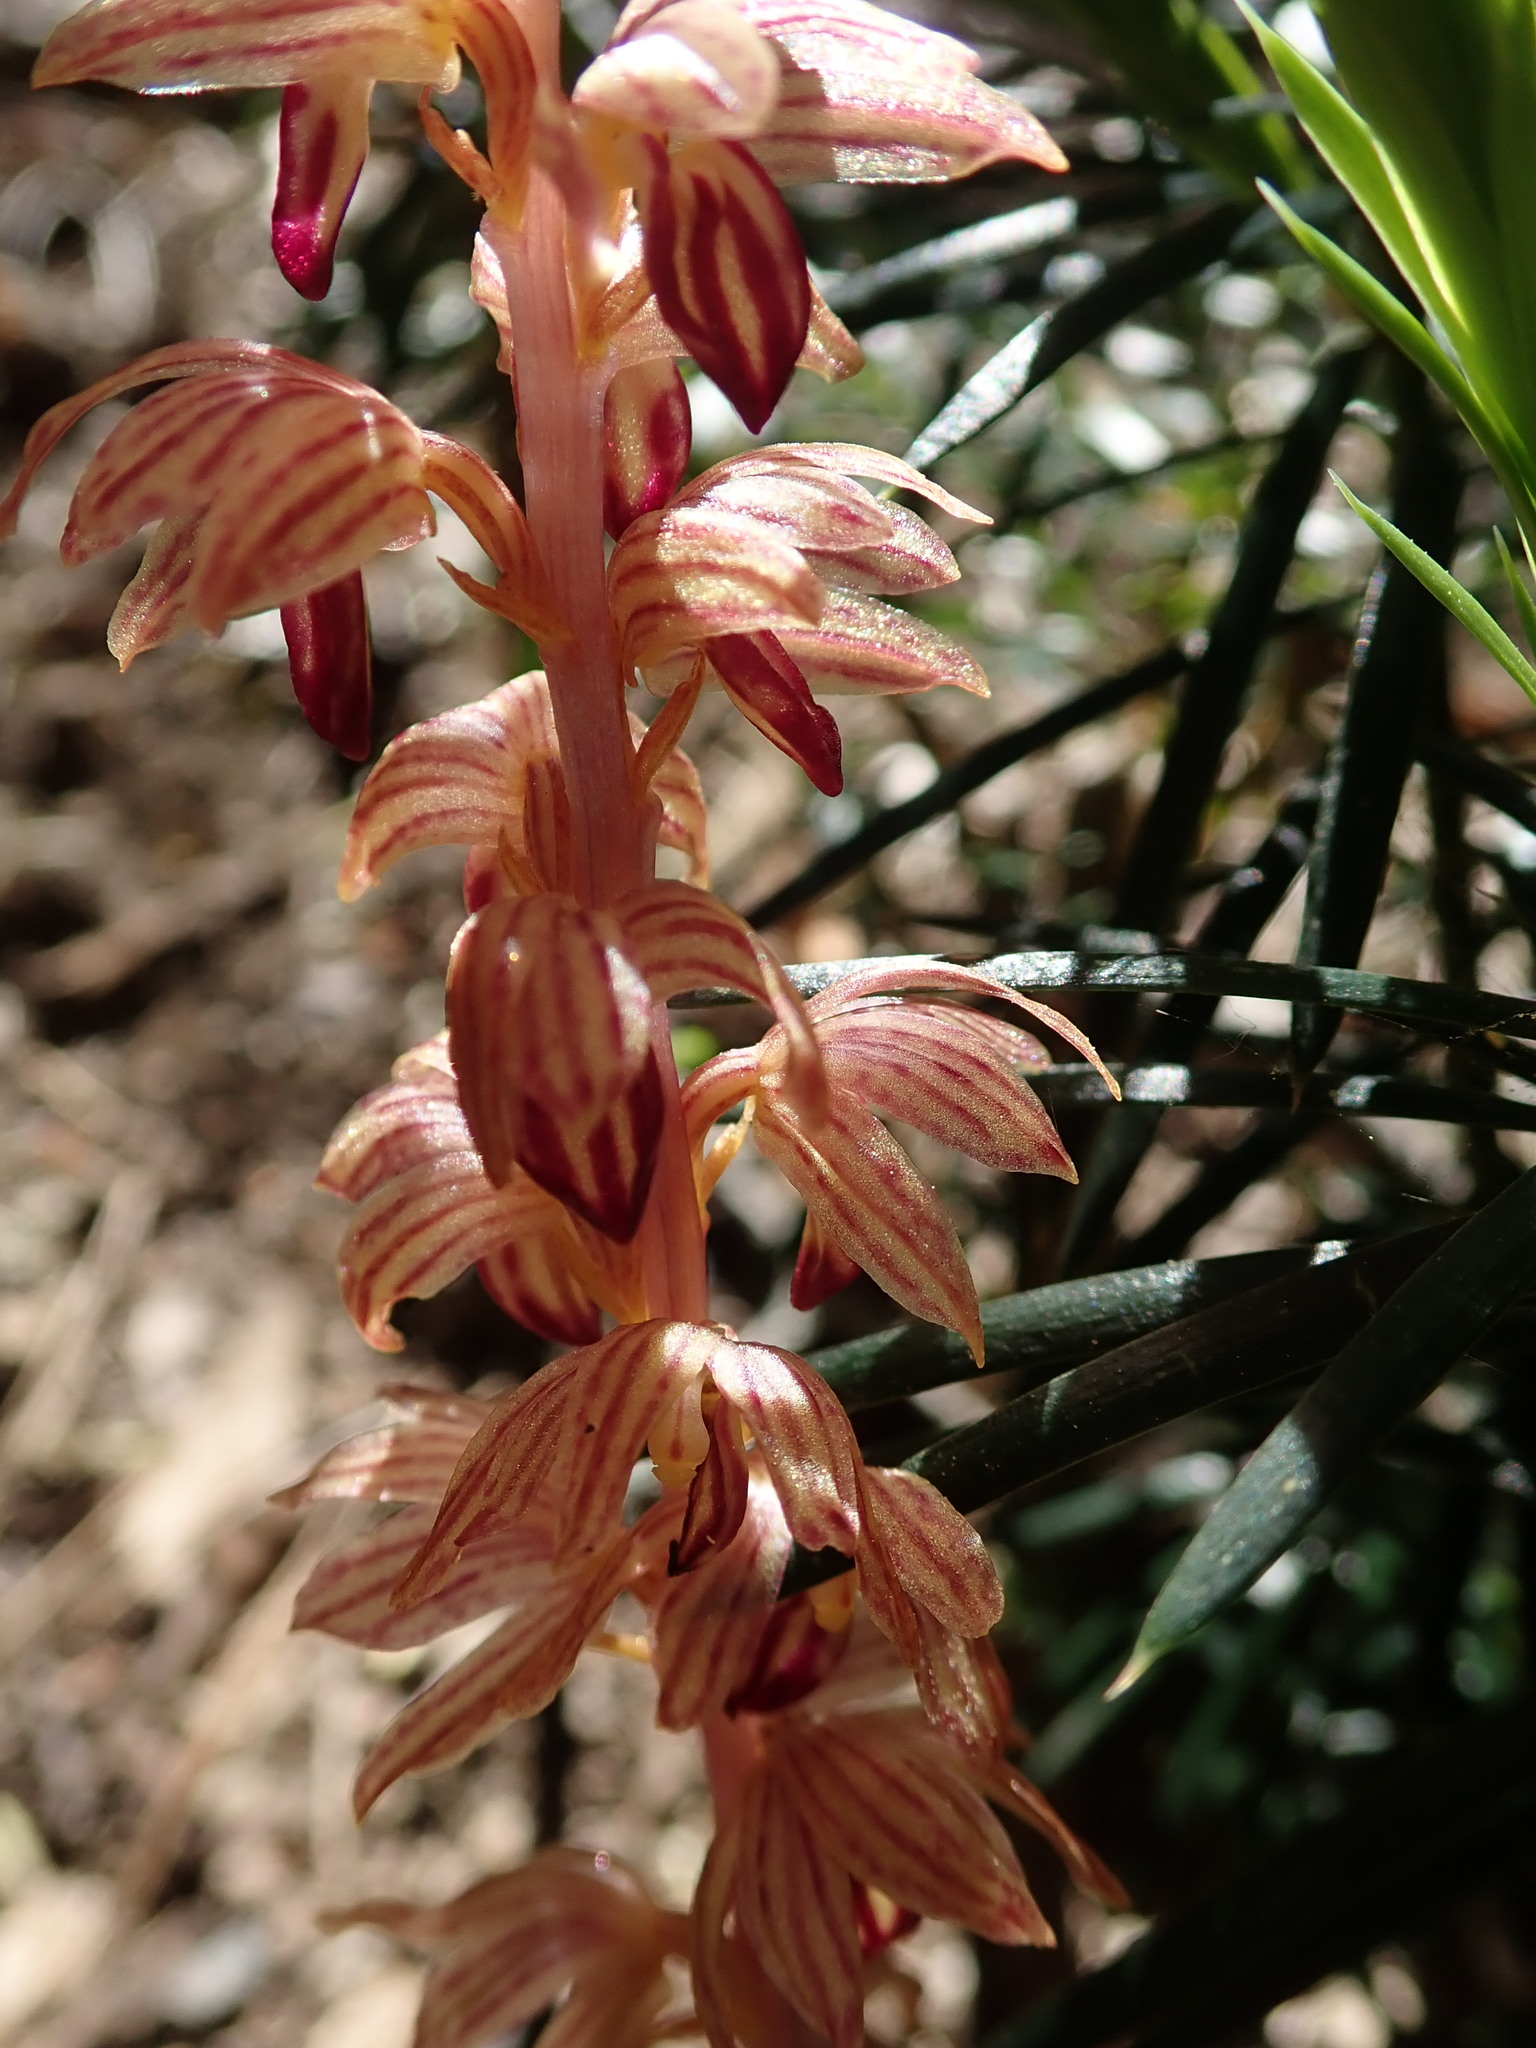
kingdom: Plantae
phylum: Tracheophyta
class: Liliopsida
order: Asparagales
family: Orchidaceae
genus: Corallorhiza
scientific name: Corallorhiza striata
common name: Hooded coralroot
